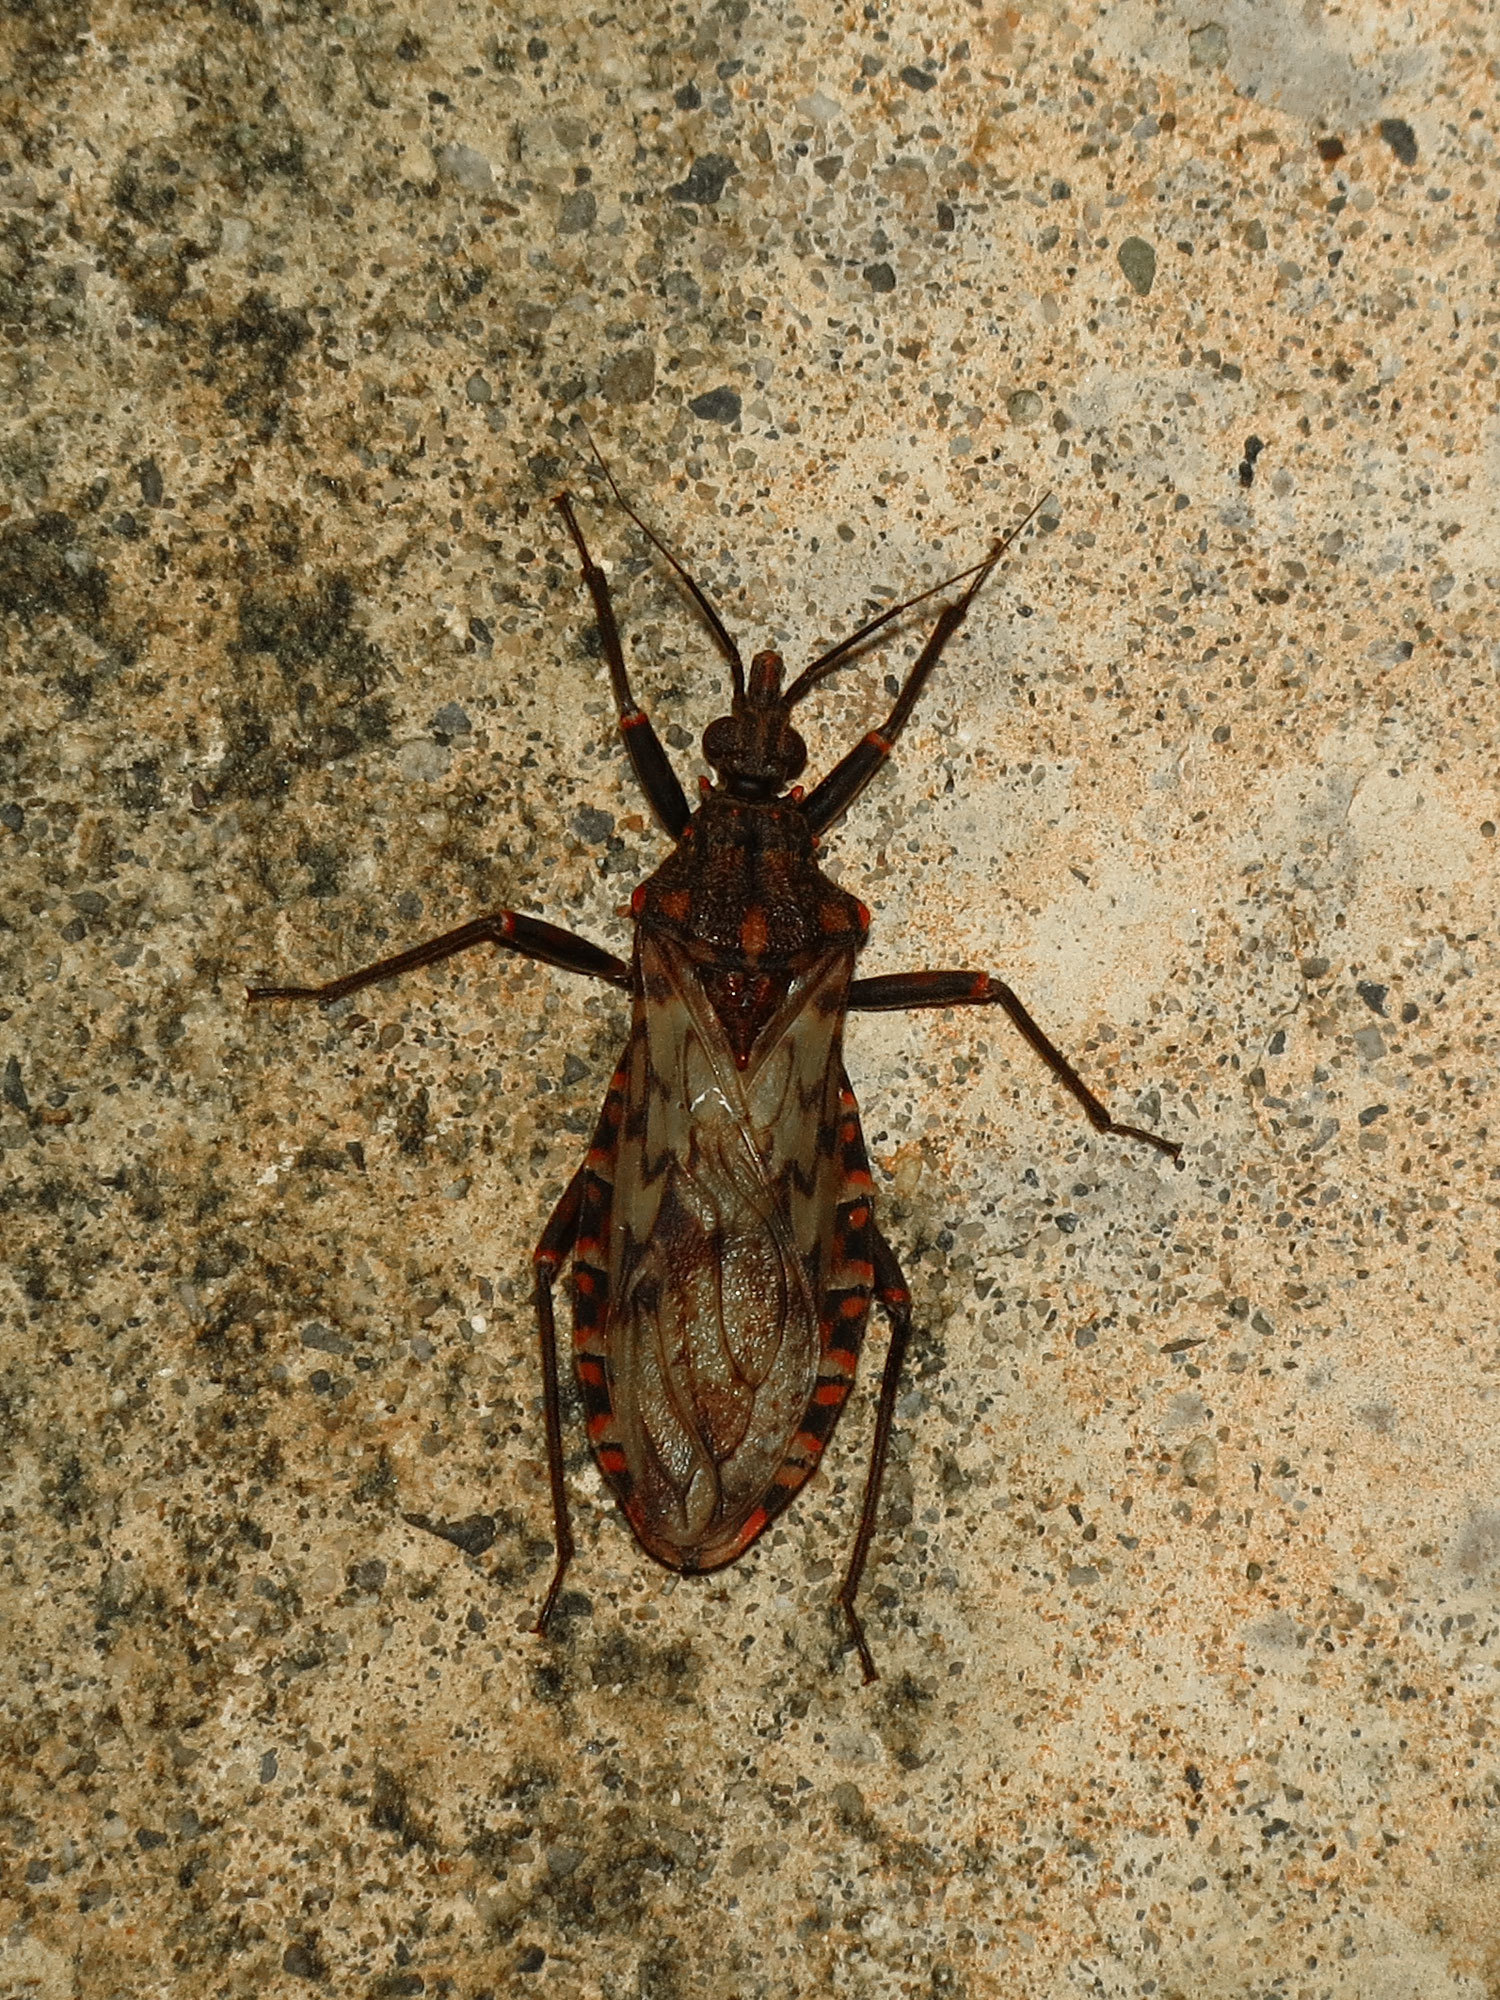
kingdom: Animalia
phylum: Arthropoda
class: Insecta
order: Hemiptera
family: Reduviidae
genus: Panstrongylus
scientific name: Panstrongylus rufotuberculatus
